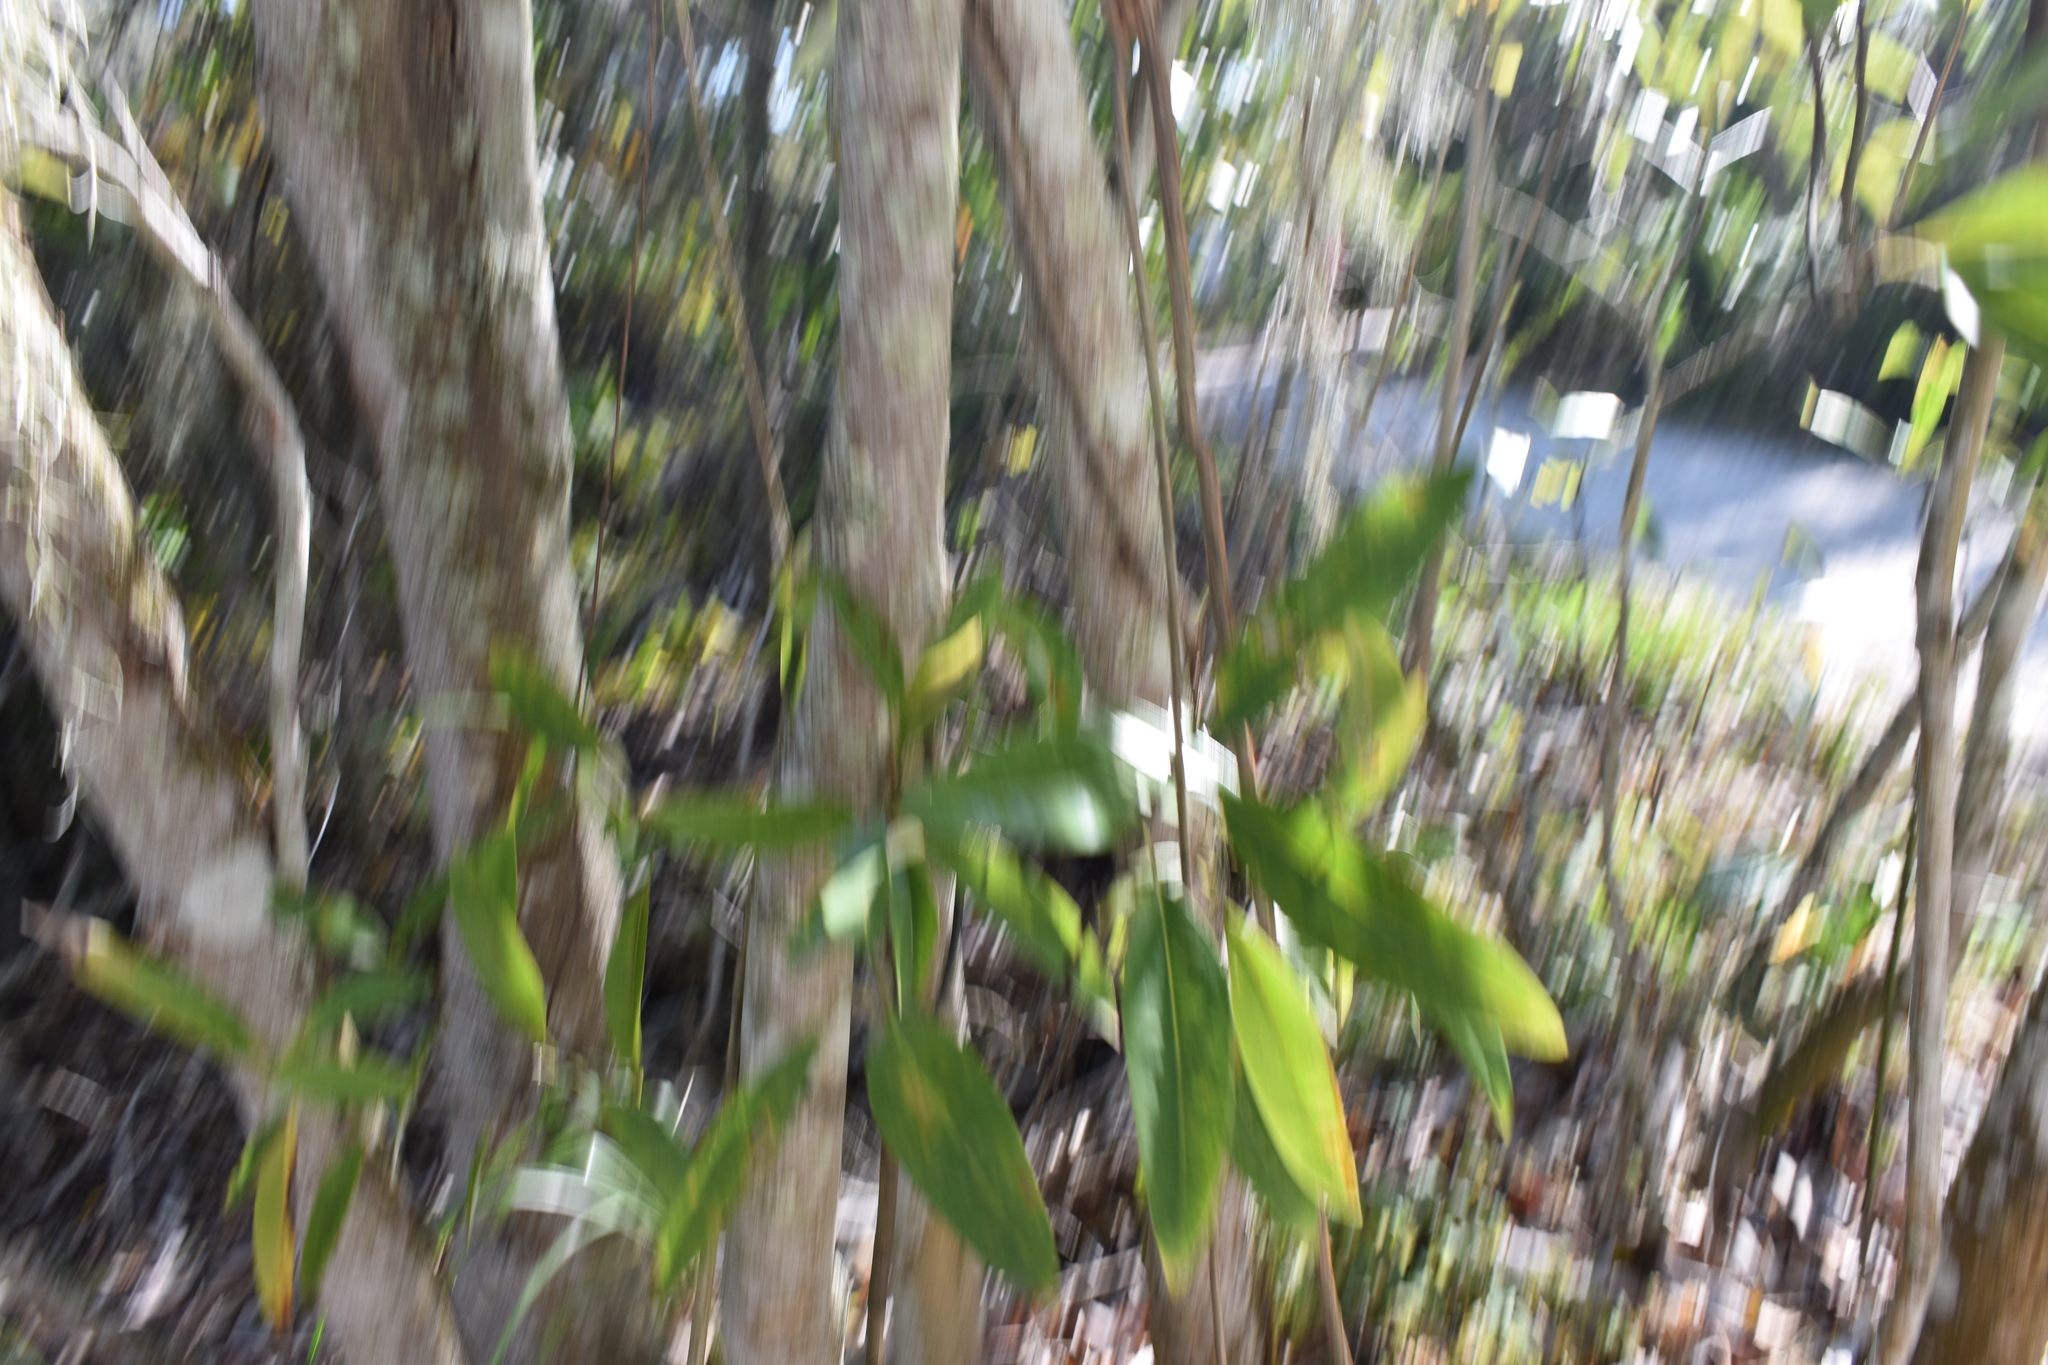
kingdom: Plantae
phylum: Tracheophyta
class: Magnoliopsida
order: Magnoliales
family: Magnoliaceae
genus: Magnolia
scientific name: Magnolia virginiana
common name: Swamp bay
